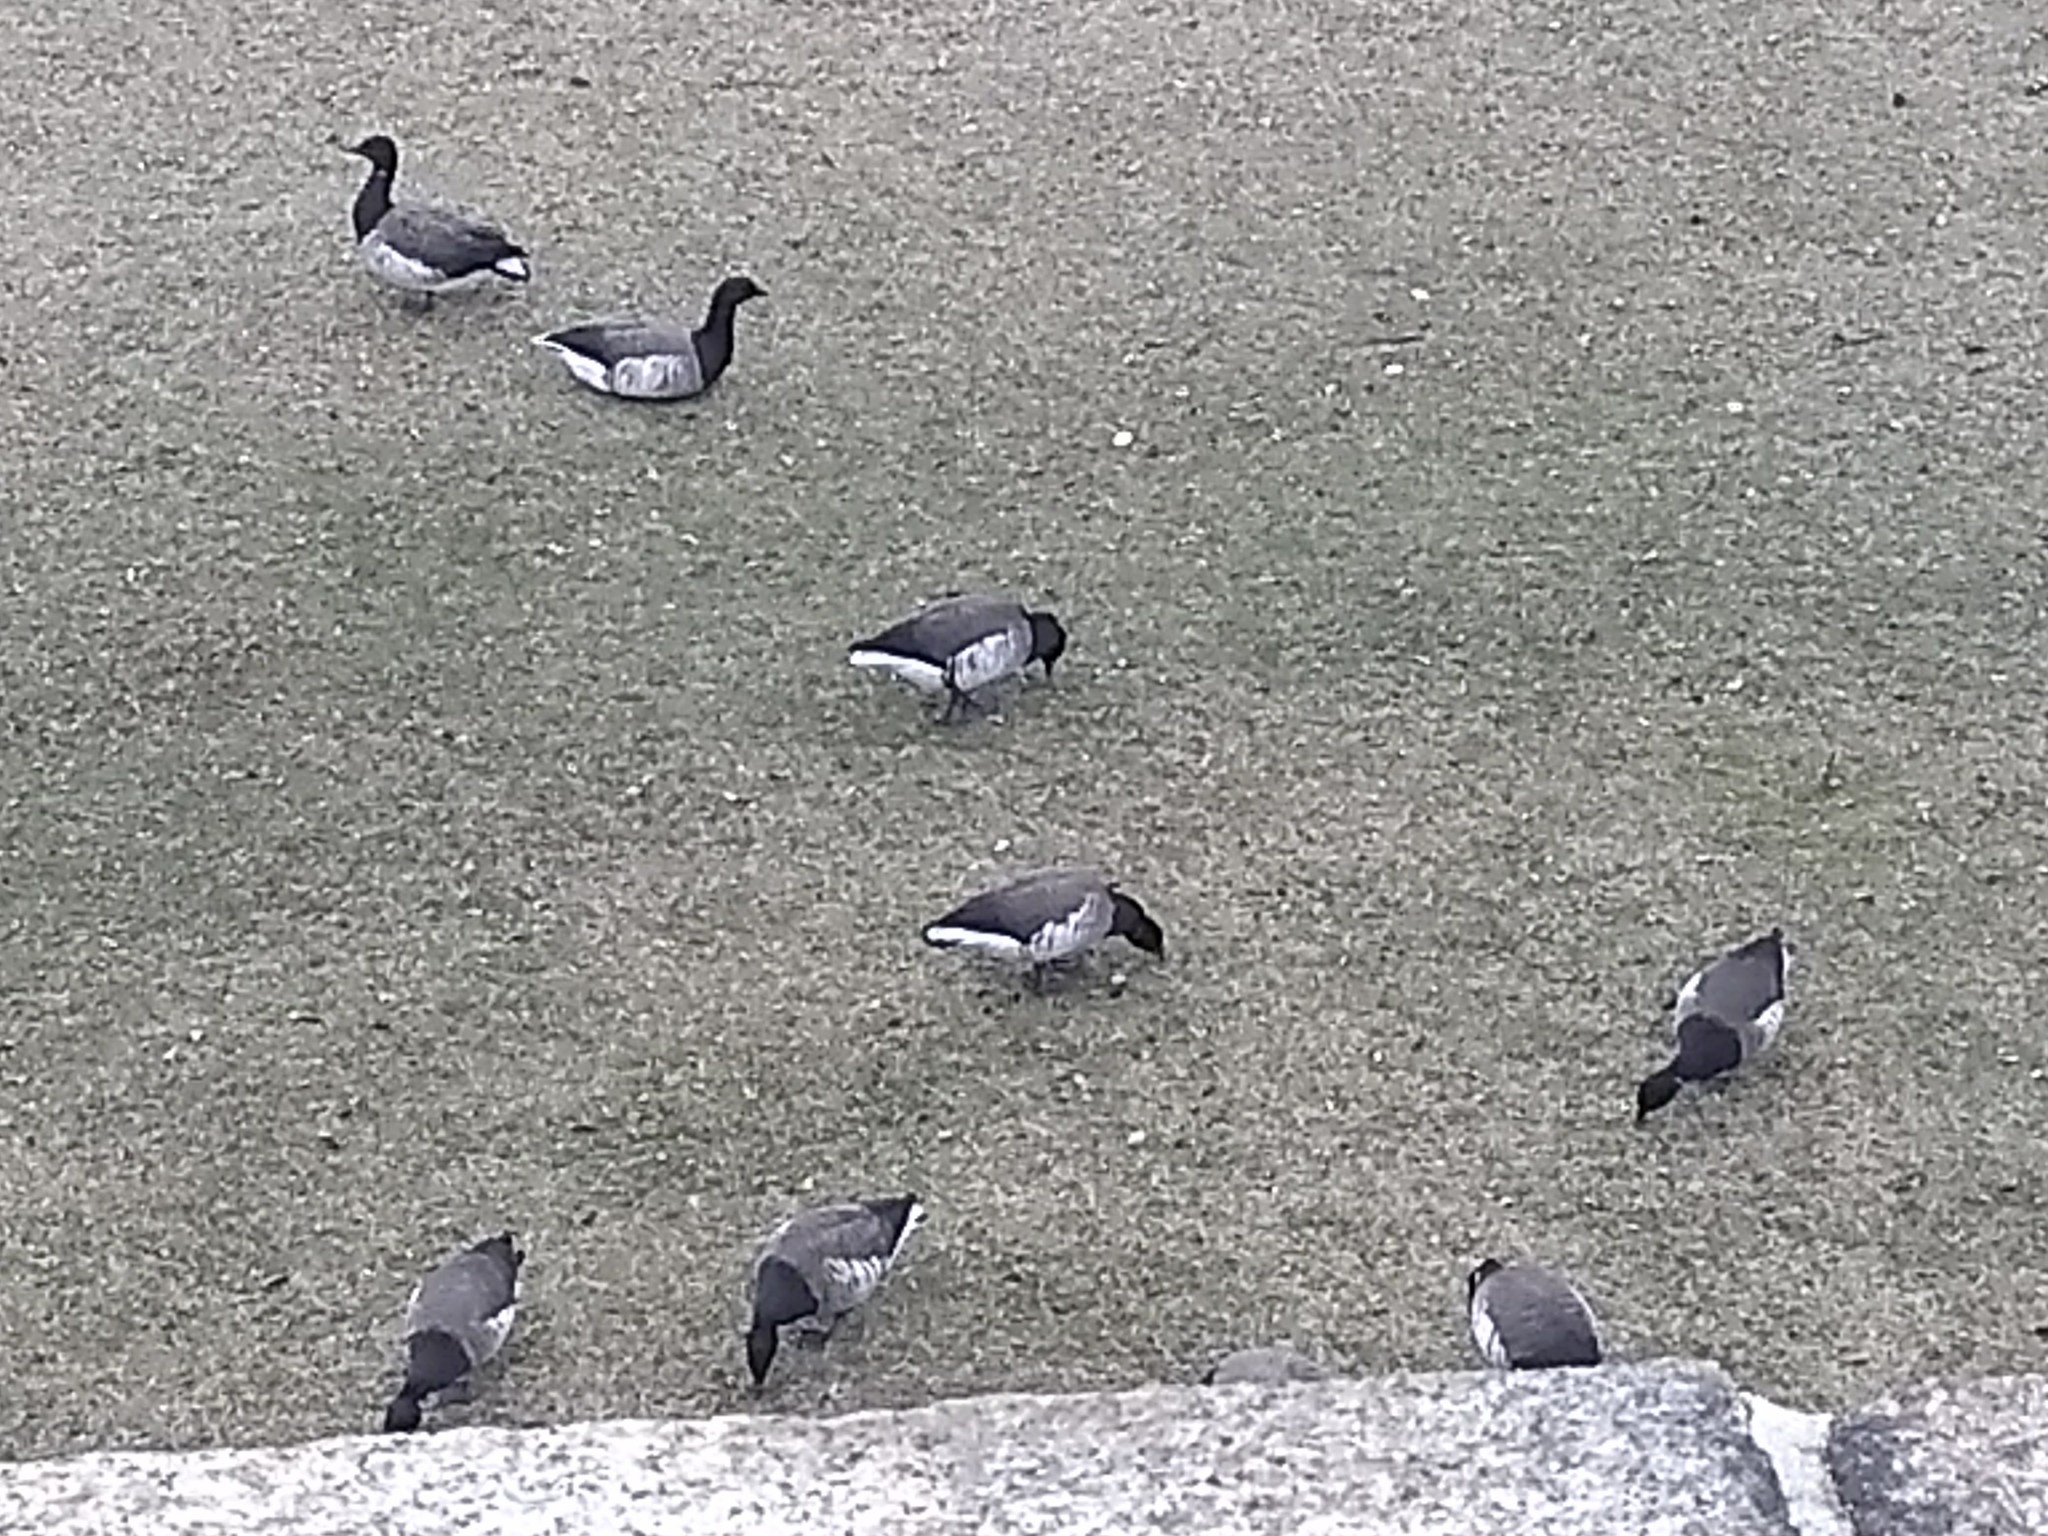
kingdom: Animalia
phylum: Chordata
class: Aves
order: Anseriformes
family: Anatidae
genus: Branta
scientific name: Branta bernicla
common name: Brant goose
